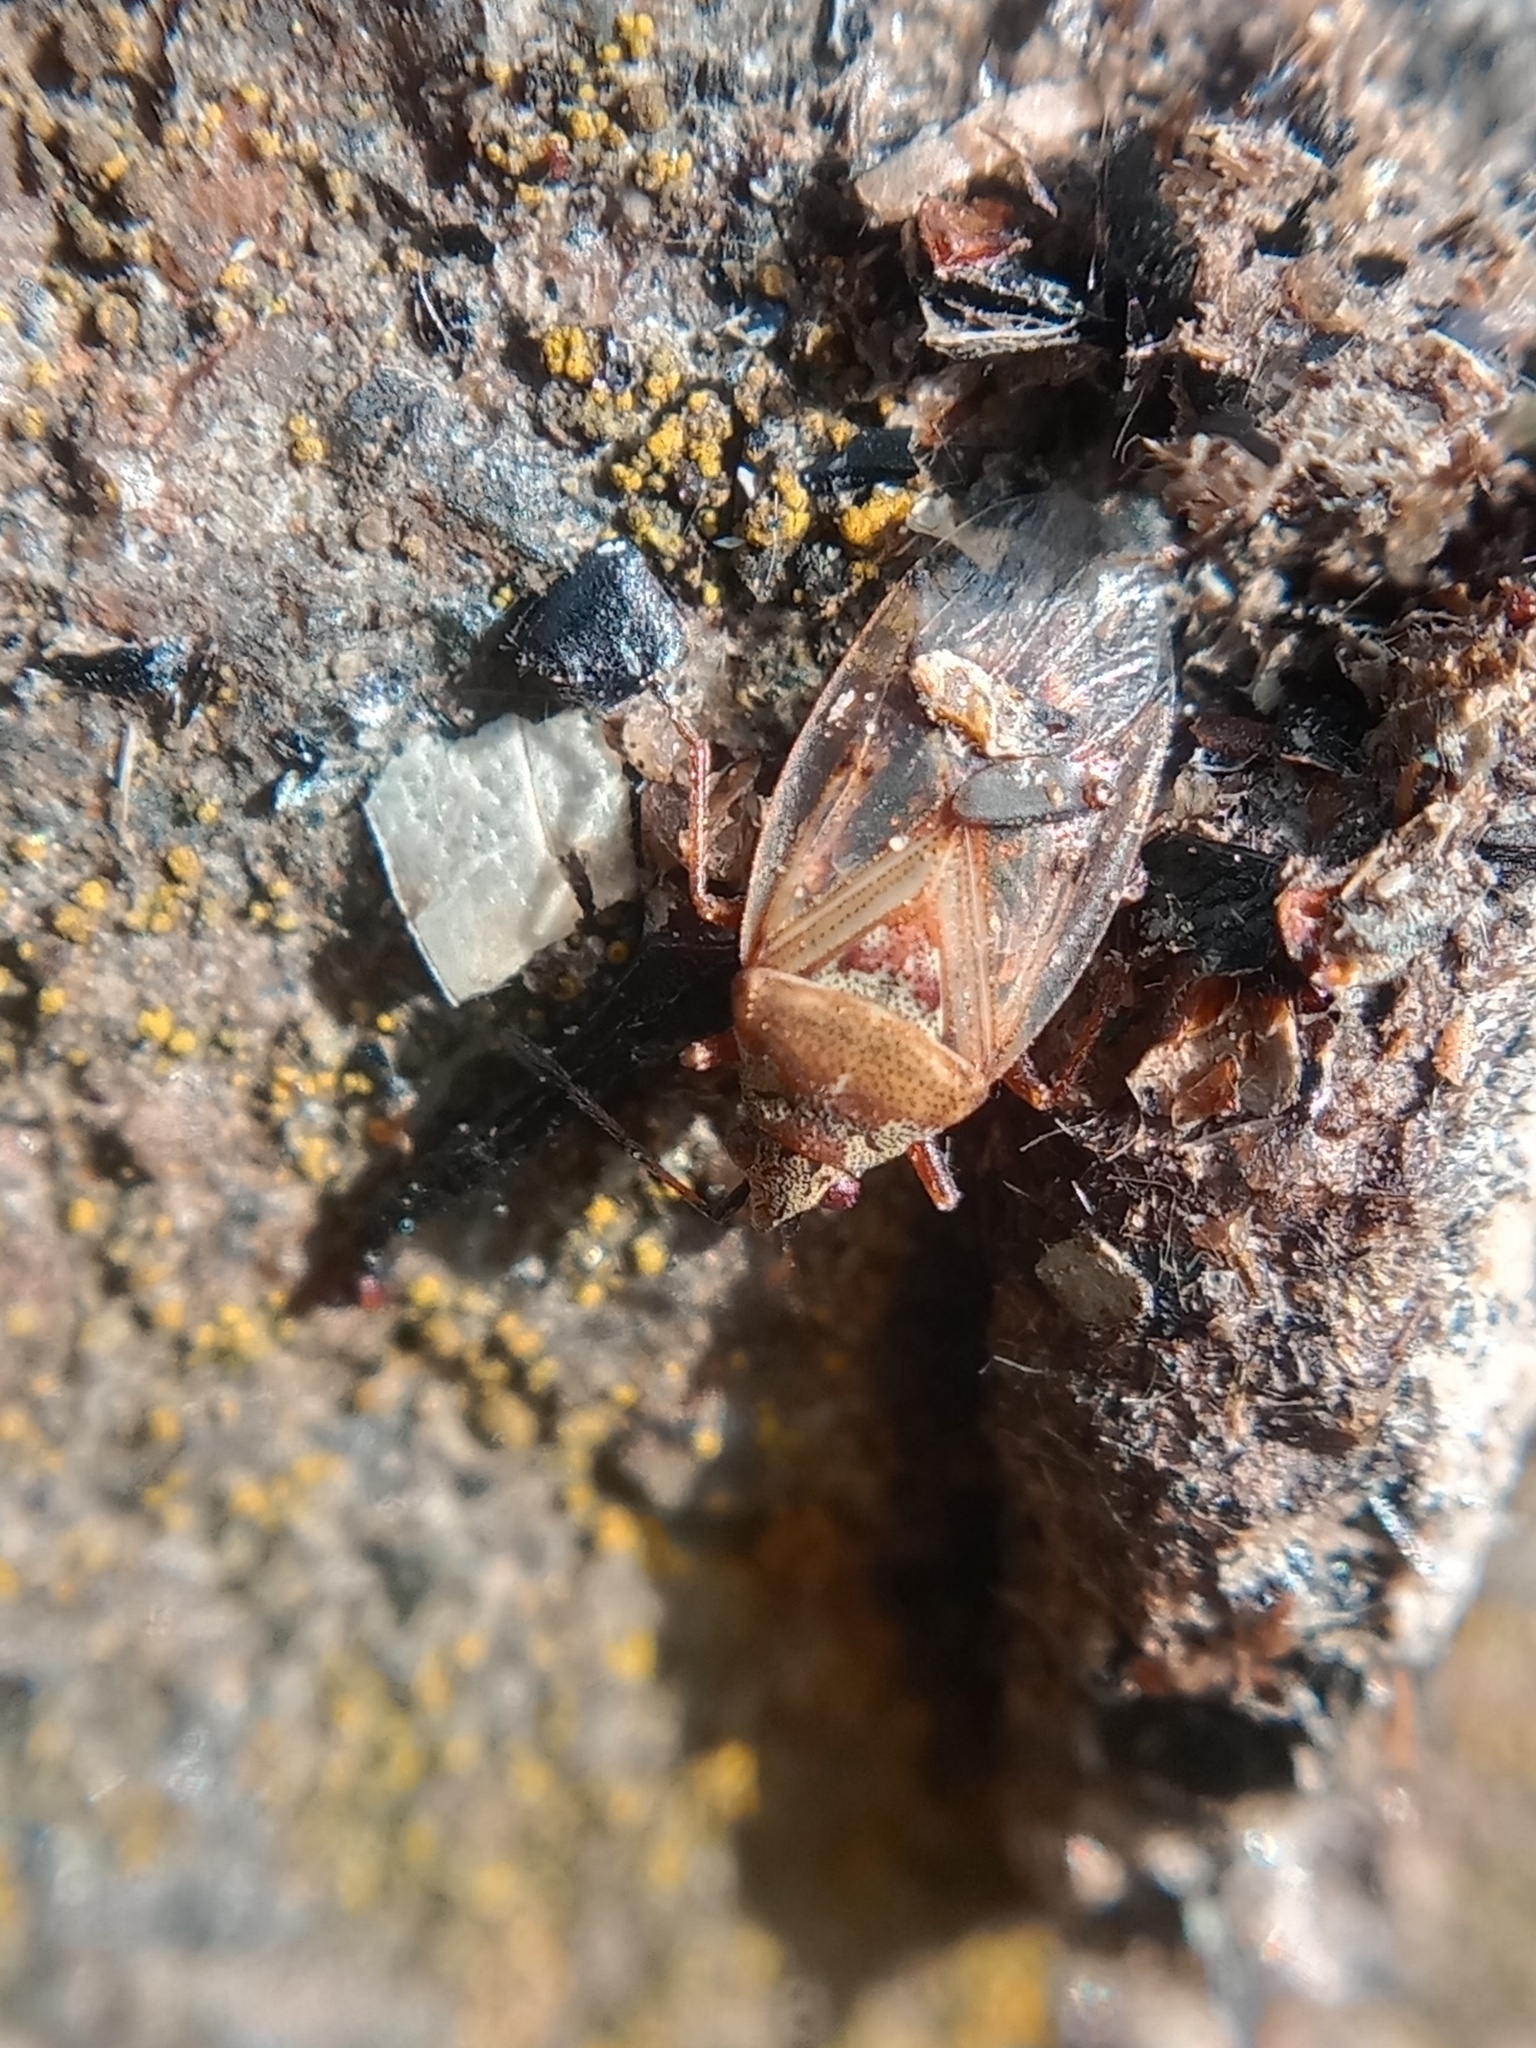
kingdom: Animalia
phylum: Arthropoda
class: Insecta
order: Hemiptera
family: Lygaeidae
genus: Kleidocerys
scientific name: Kleidocerys resedae
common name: Birch catkin bug
